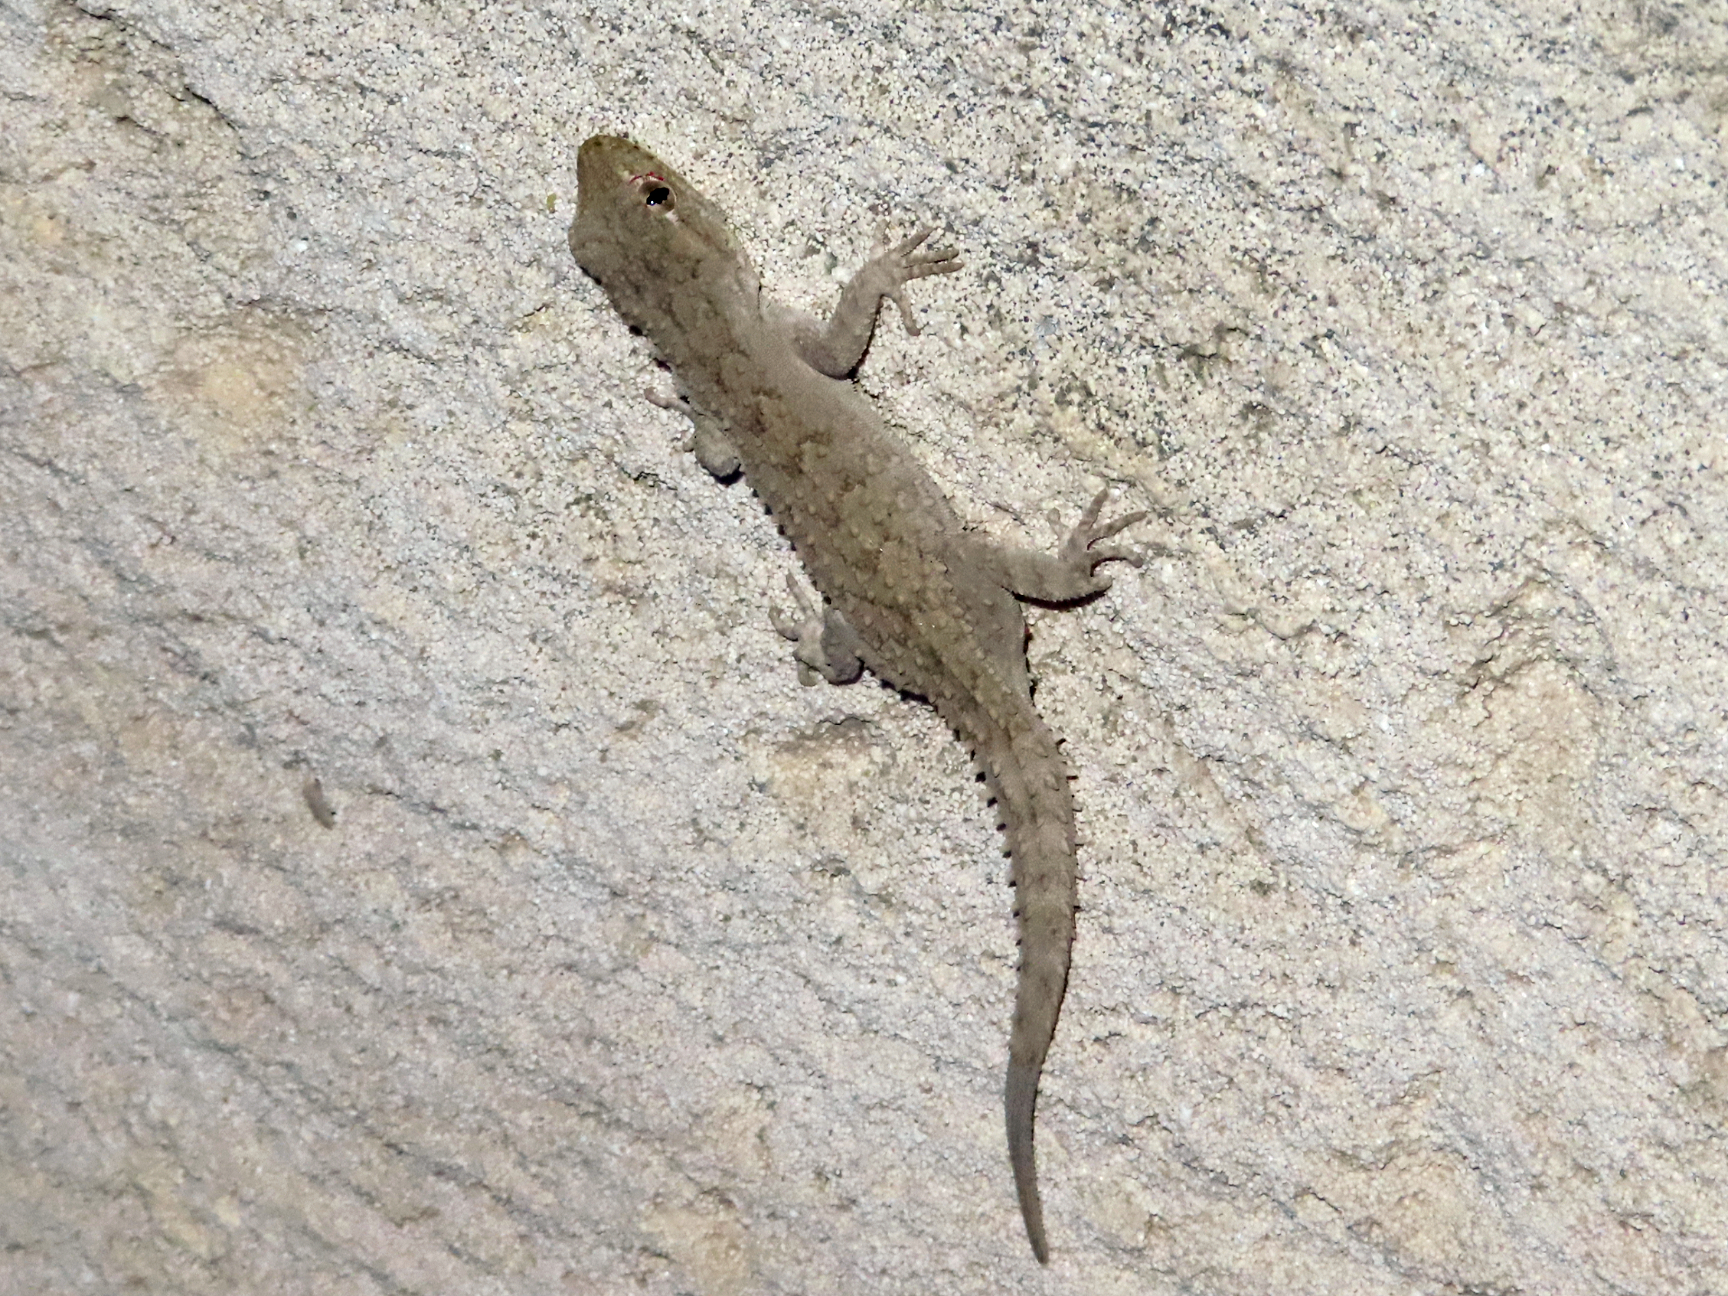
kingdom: Animalia
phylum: Chordata
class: Squamata
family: Gekkonidae
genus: Mediodactylus
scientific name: Mediodactylus russowii
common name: Grey thin-toed gecko
